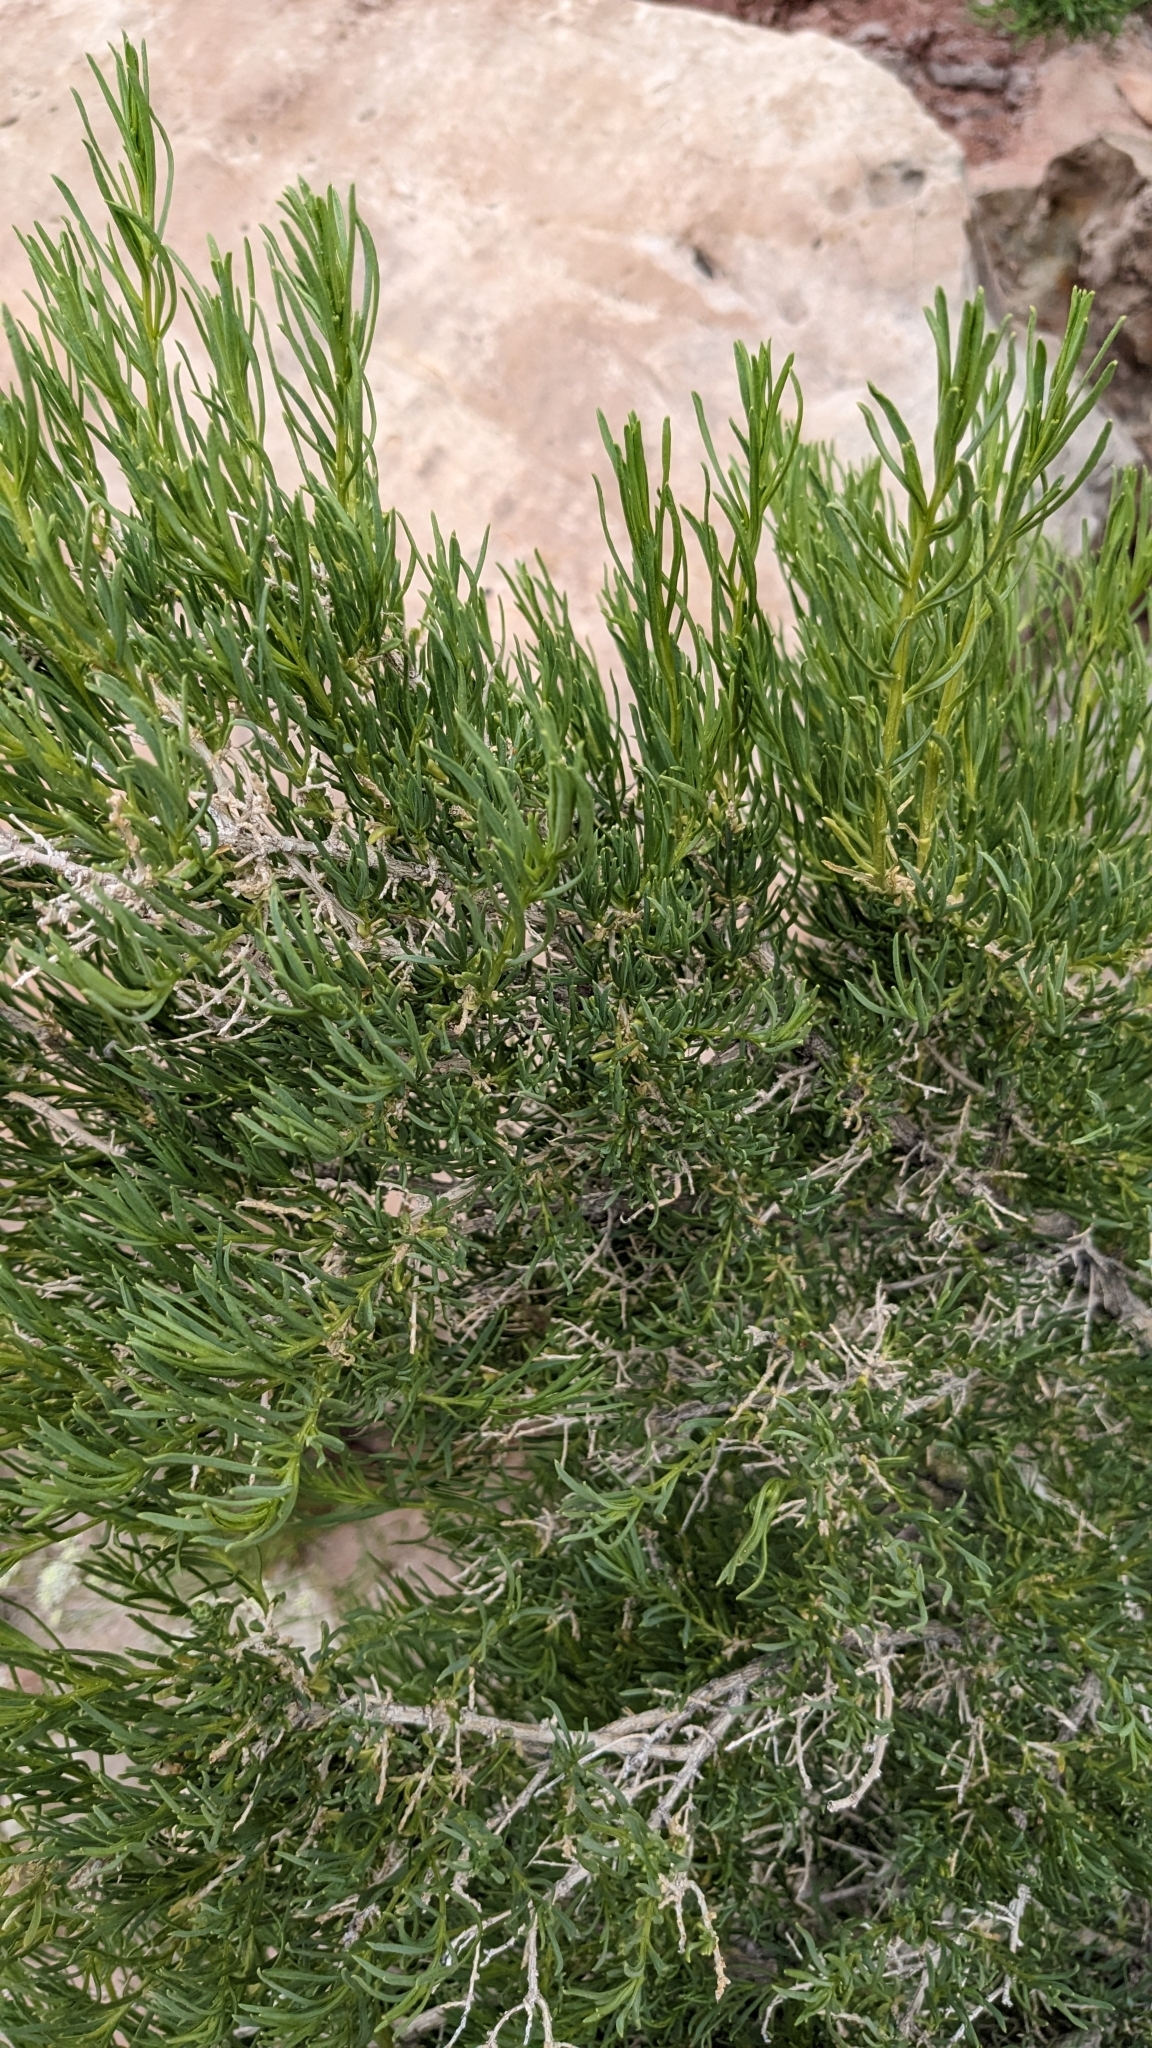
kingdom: Plantae
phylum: Tracheophyta
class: Magnoliopsida
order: Caryophyllales
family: Sarcobataceae
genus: Sarcobatus
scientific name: Sarcobatus vermiculatus
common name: Greasewood
